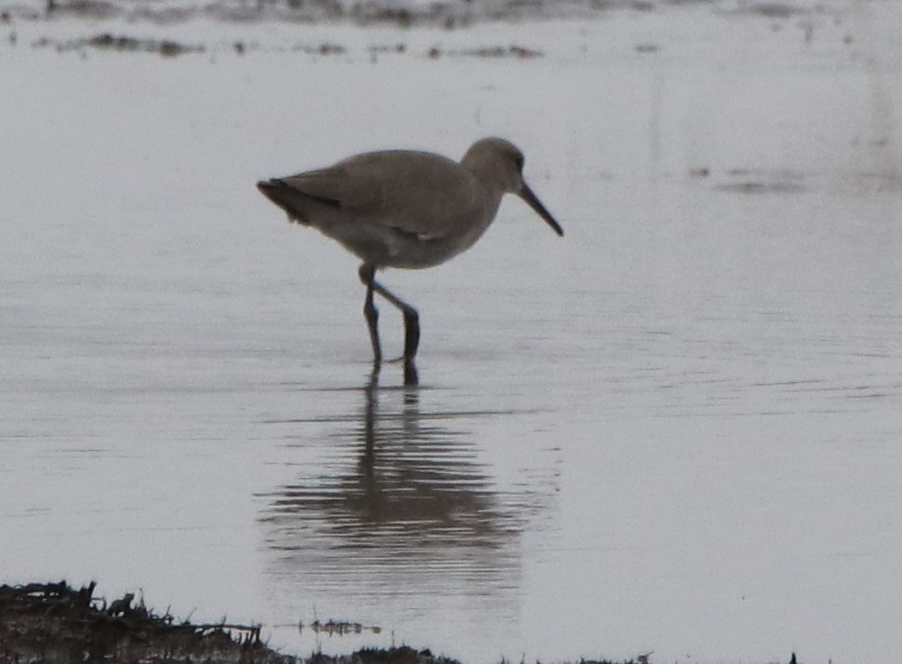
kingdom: Animalia
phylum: Chordata
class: Aves
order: Charadriiformes
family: Scolopacidae
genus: Tringa
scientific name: Tringa semipalmata
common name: Willet
